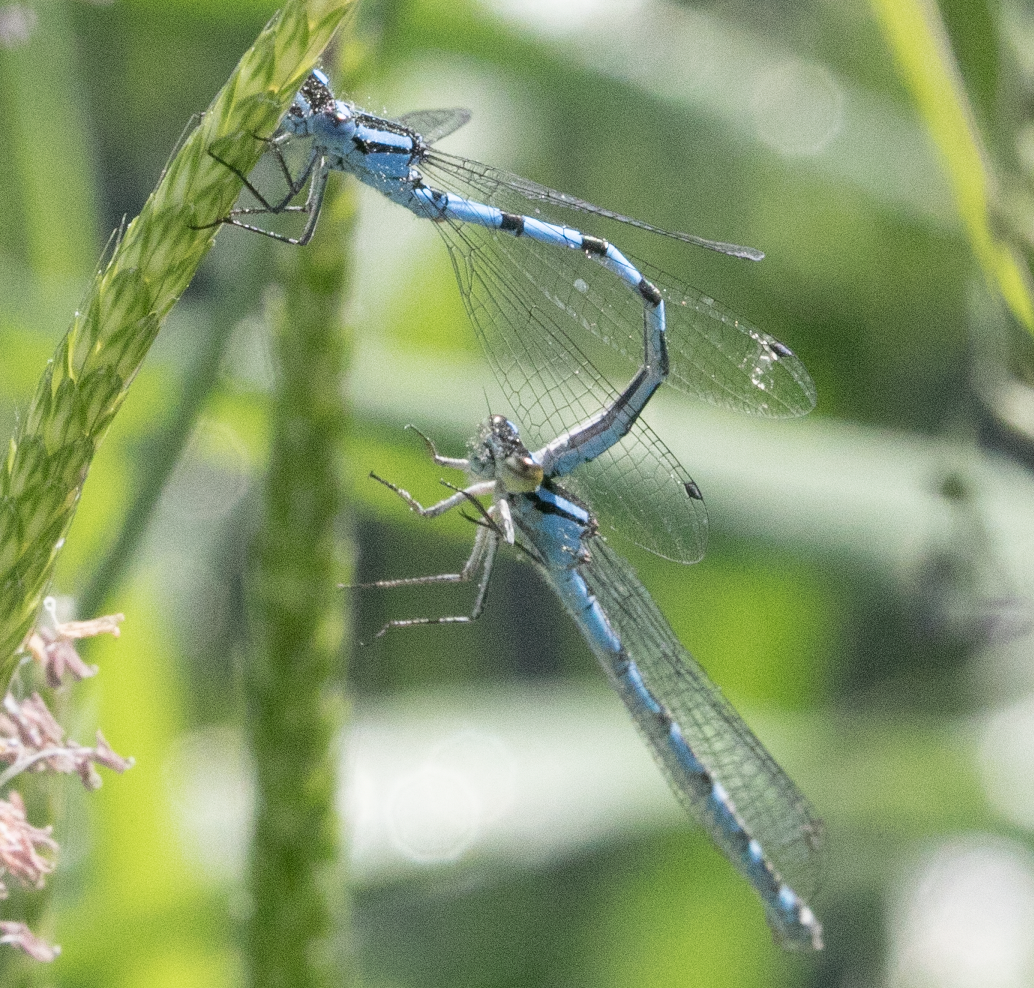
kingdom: Animalia
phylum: Arthropoda
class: Insecta
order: Odonata
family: Coenagrionidae
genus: Enallagma
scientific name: Enallagma cyathigerum
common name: Common blue damselfly
